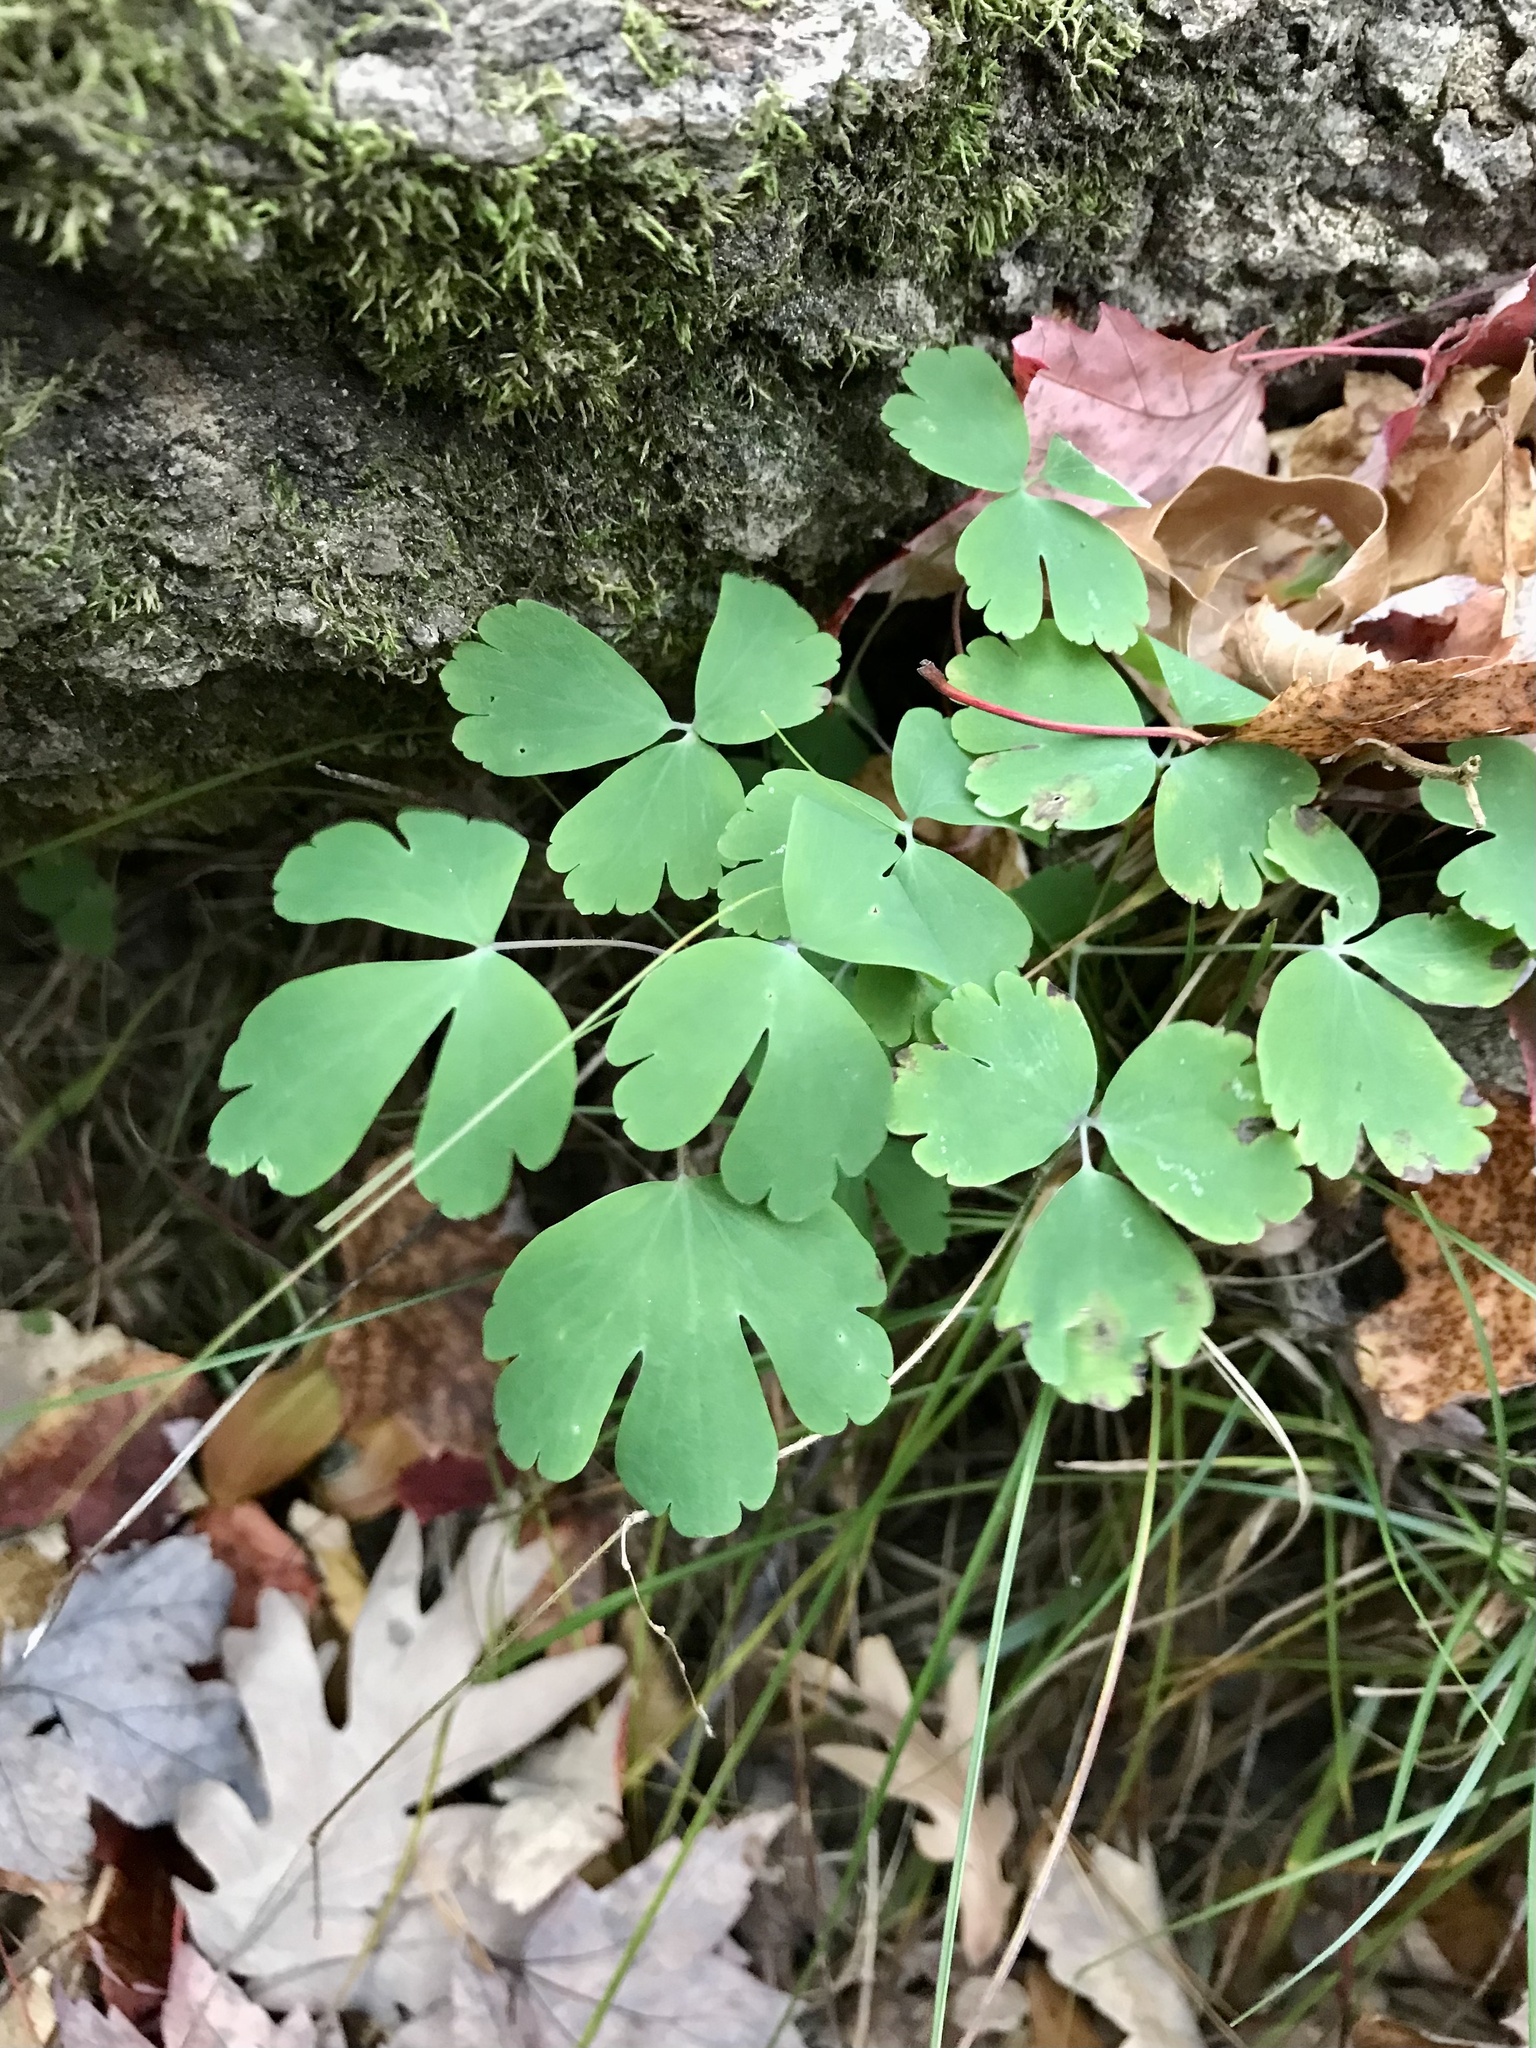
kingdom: Plantae
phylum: Tracheophyta
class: Magnoliopsida
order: Ranunculales
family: Ranunculaceae
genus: Aquilegia
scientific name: Aquilegia canadensis
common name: American columbine
